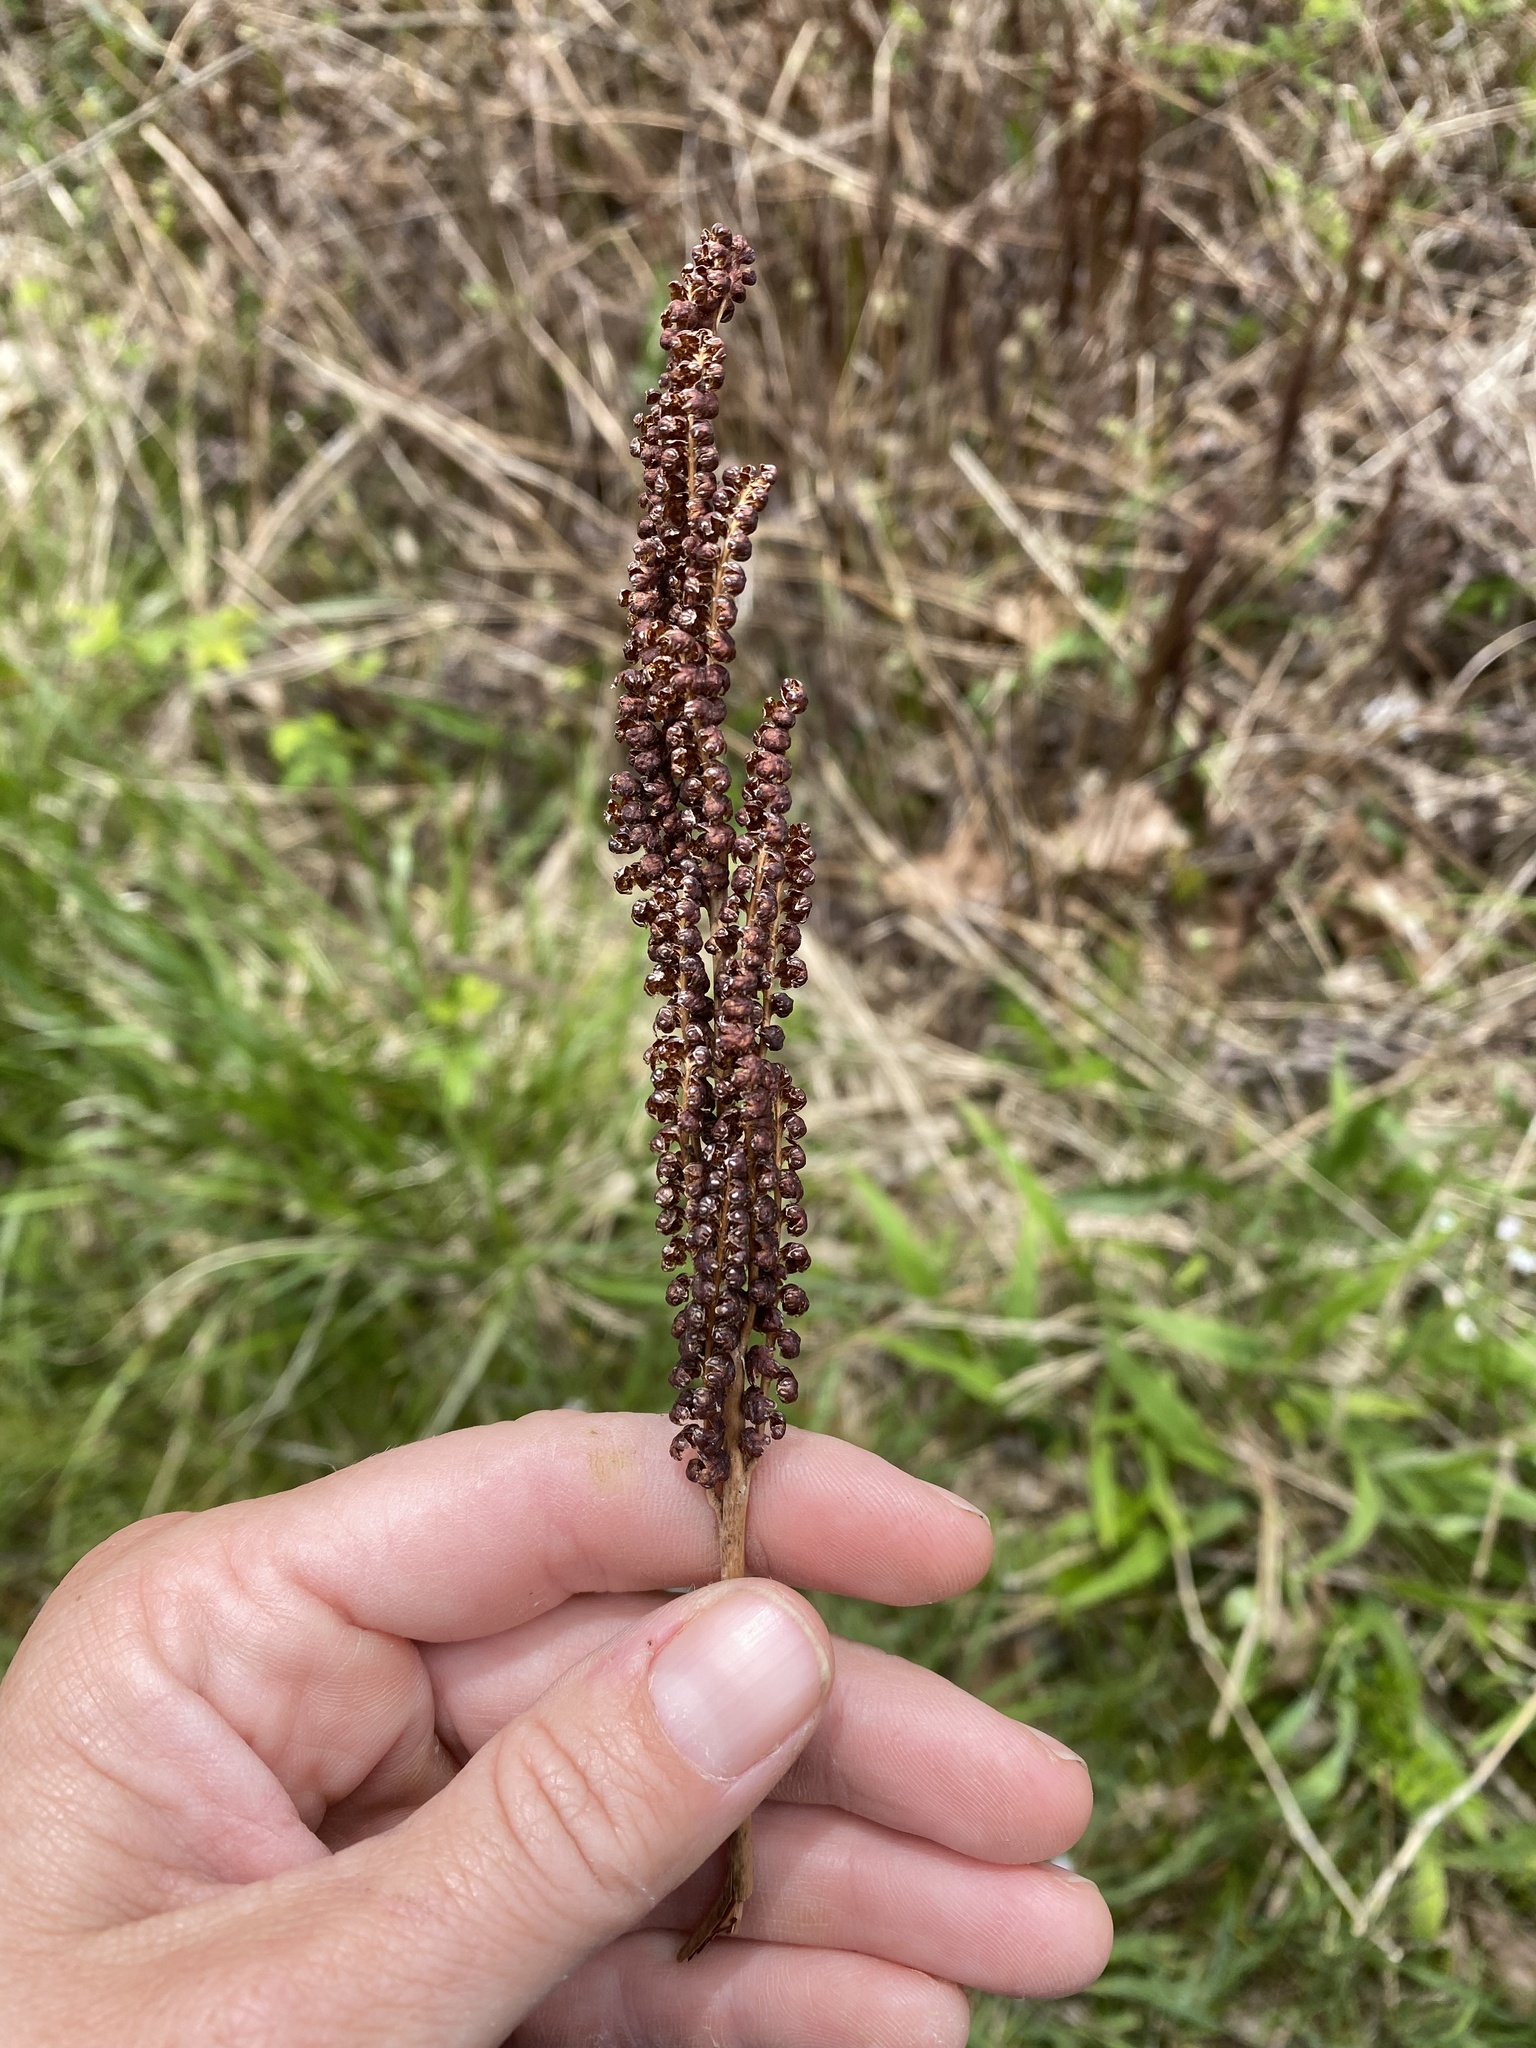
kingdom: Plantae
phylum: Tracheophyta
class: Polypodiopsida
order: Polypodiales
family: Onocleaceae
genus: Onoclea
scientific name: Onoclea sensibilis
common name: Sensitive fern
